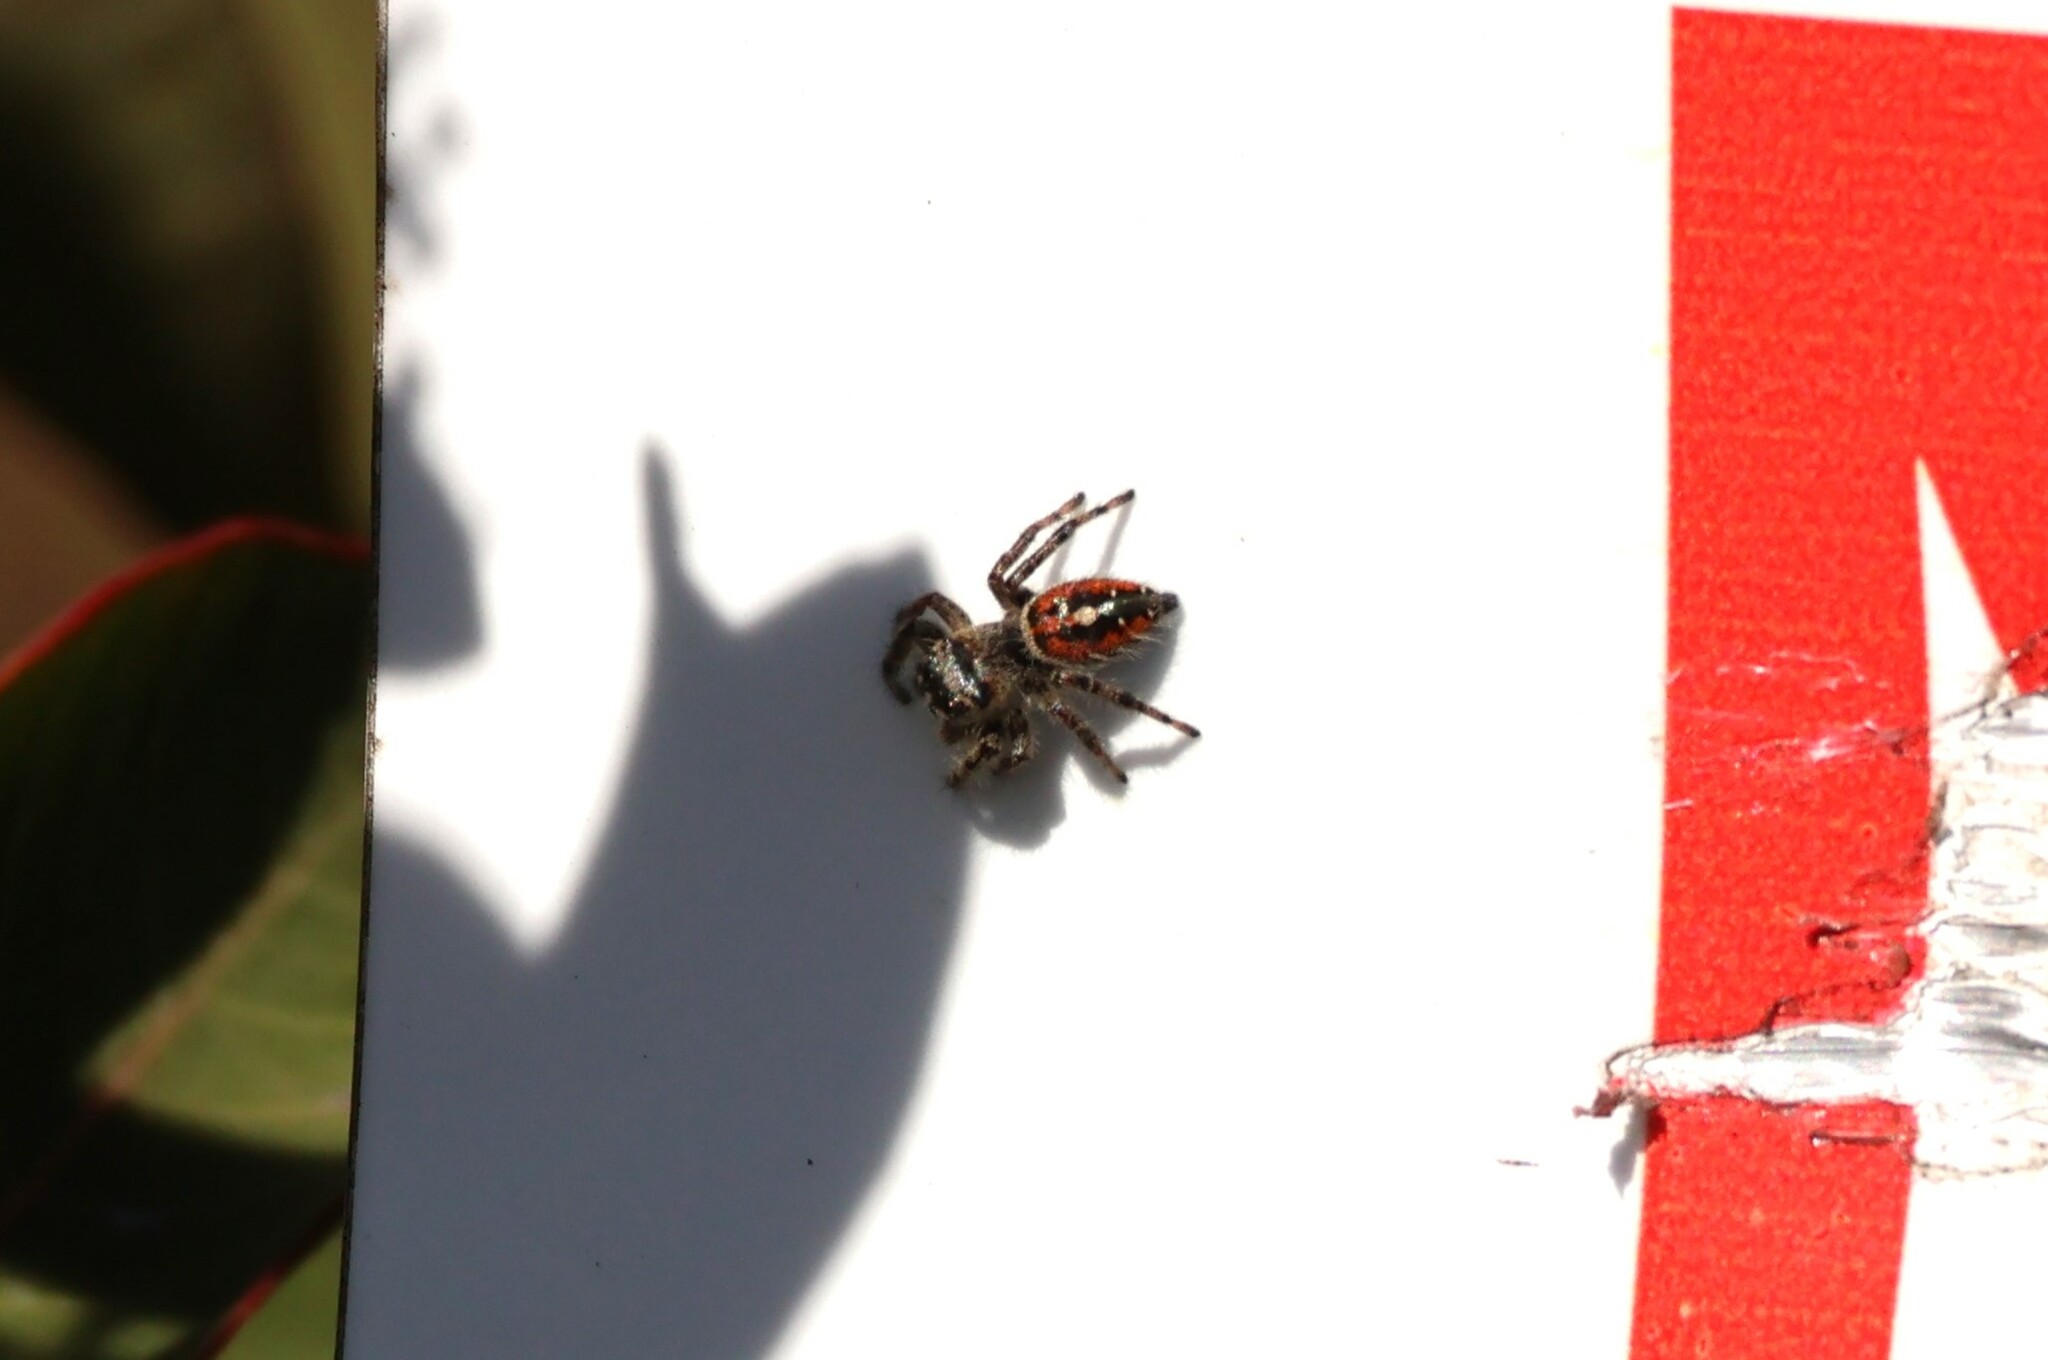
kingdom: Animalia
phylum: Arthropoda
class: Arachnida
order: Araneae
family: Salticidae
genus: Phidippus
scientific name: Phidippus phoenix
